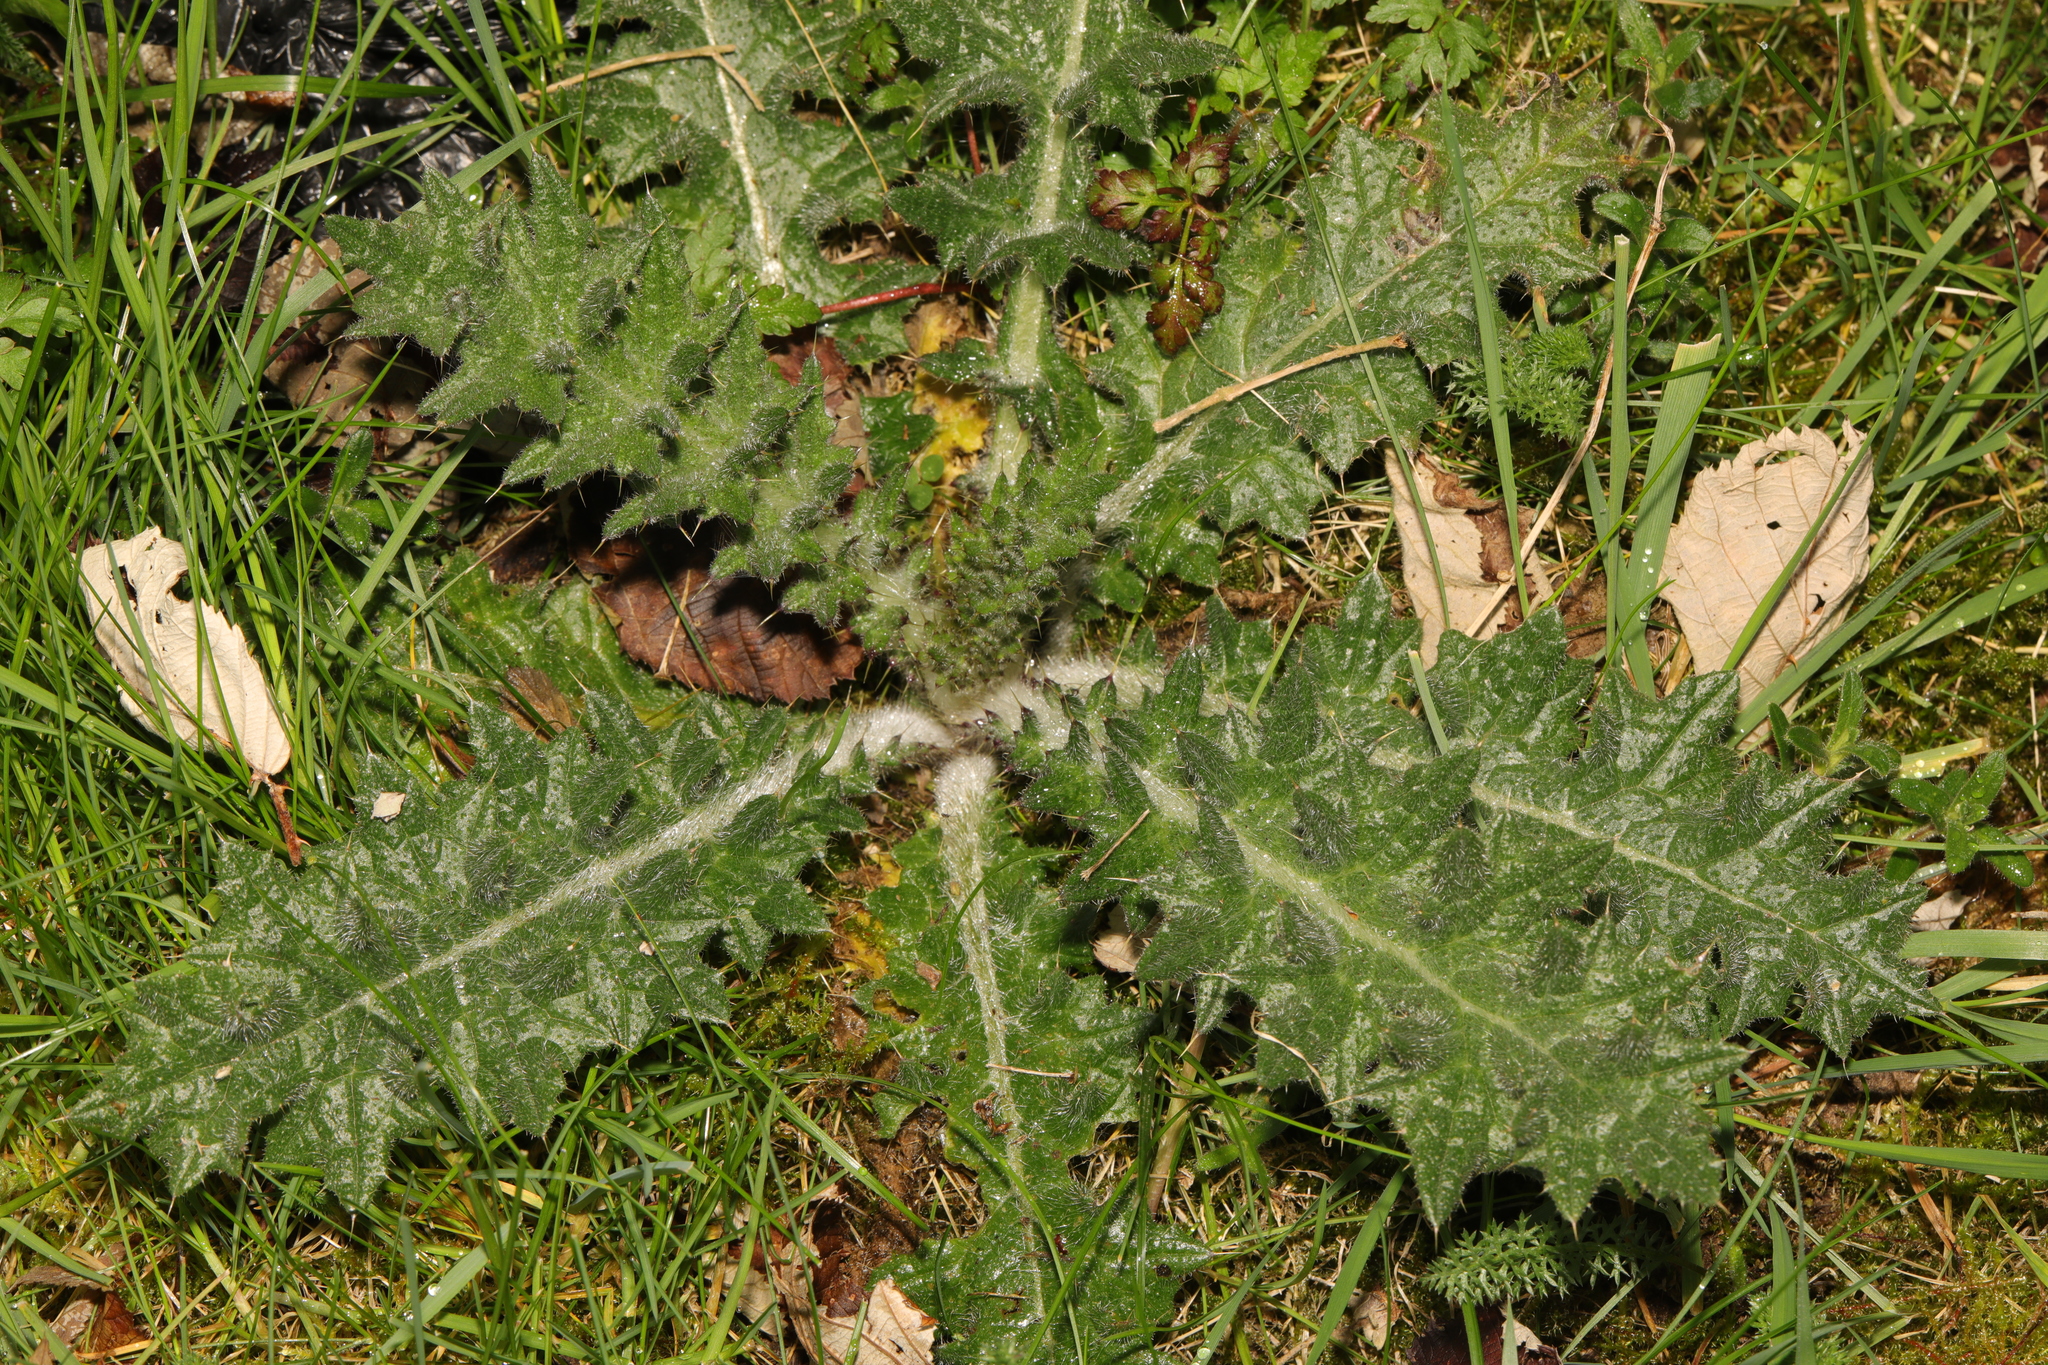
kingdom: Plantae
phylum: Tracheophyta
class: Magnoliopsida
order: Asterales
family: Asteraceae
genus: Cirsium
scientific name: Cirsium vulgare
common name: Bull thistle
